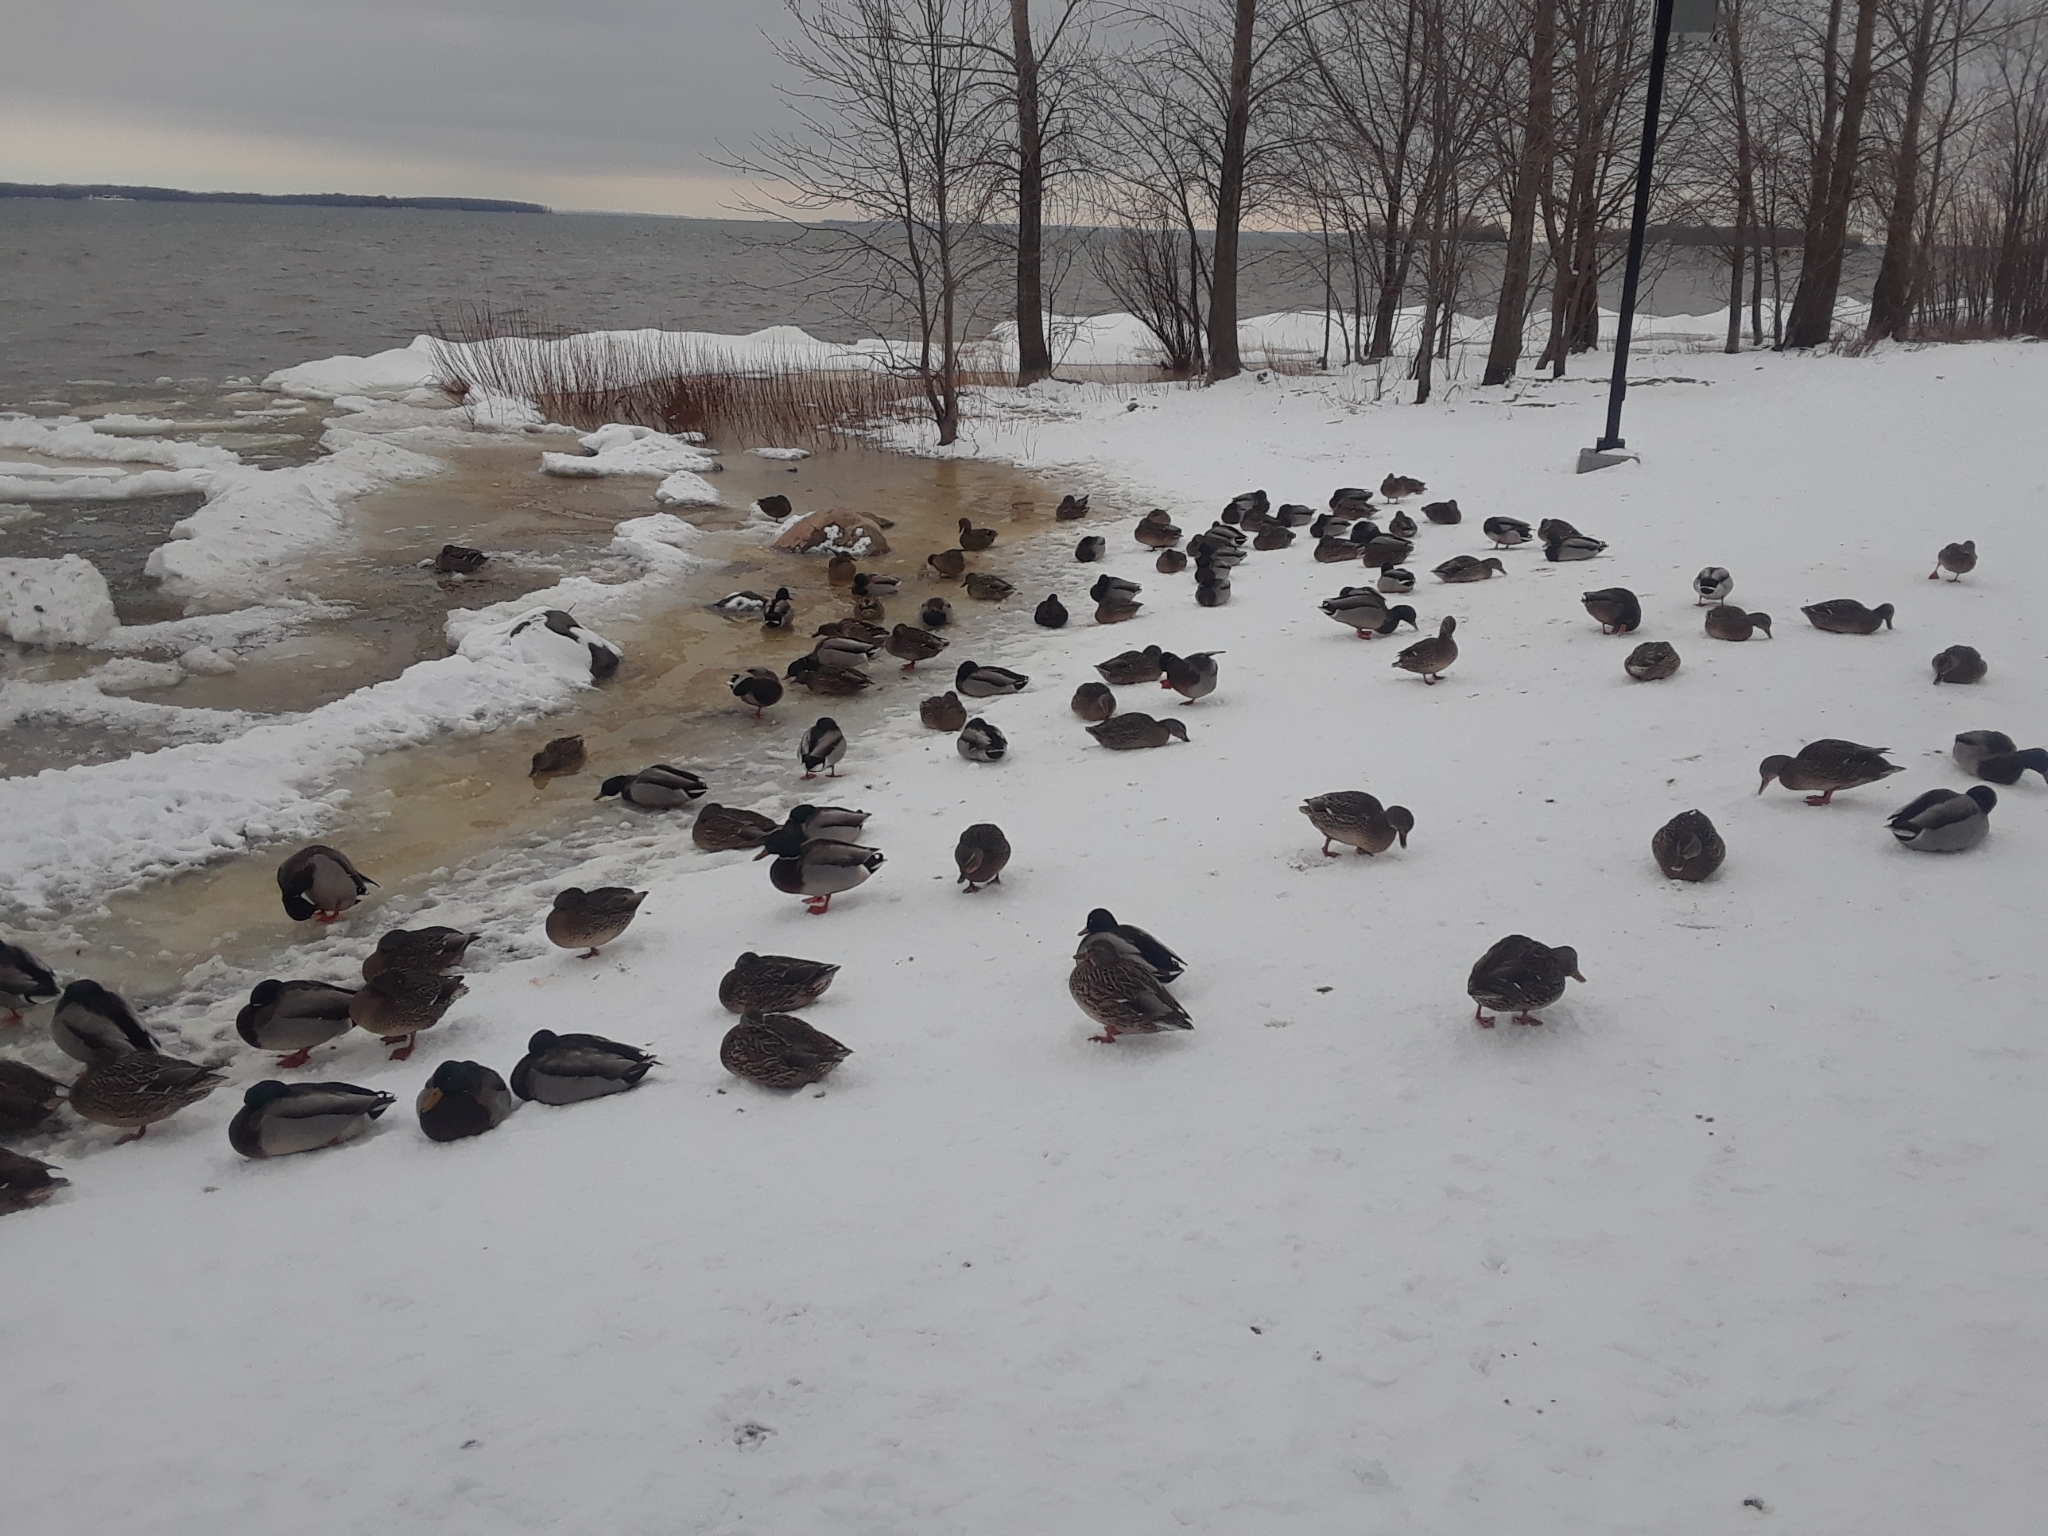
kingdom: Animalia
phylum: Chordata
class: Aves
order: Anseriformes
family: Anatidae
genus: Anas
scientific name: Anas platyrhynchos
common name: Mallard
